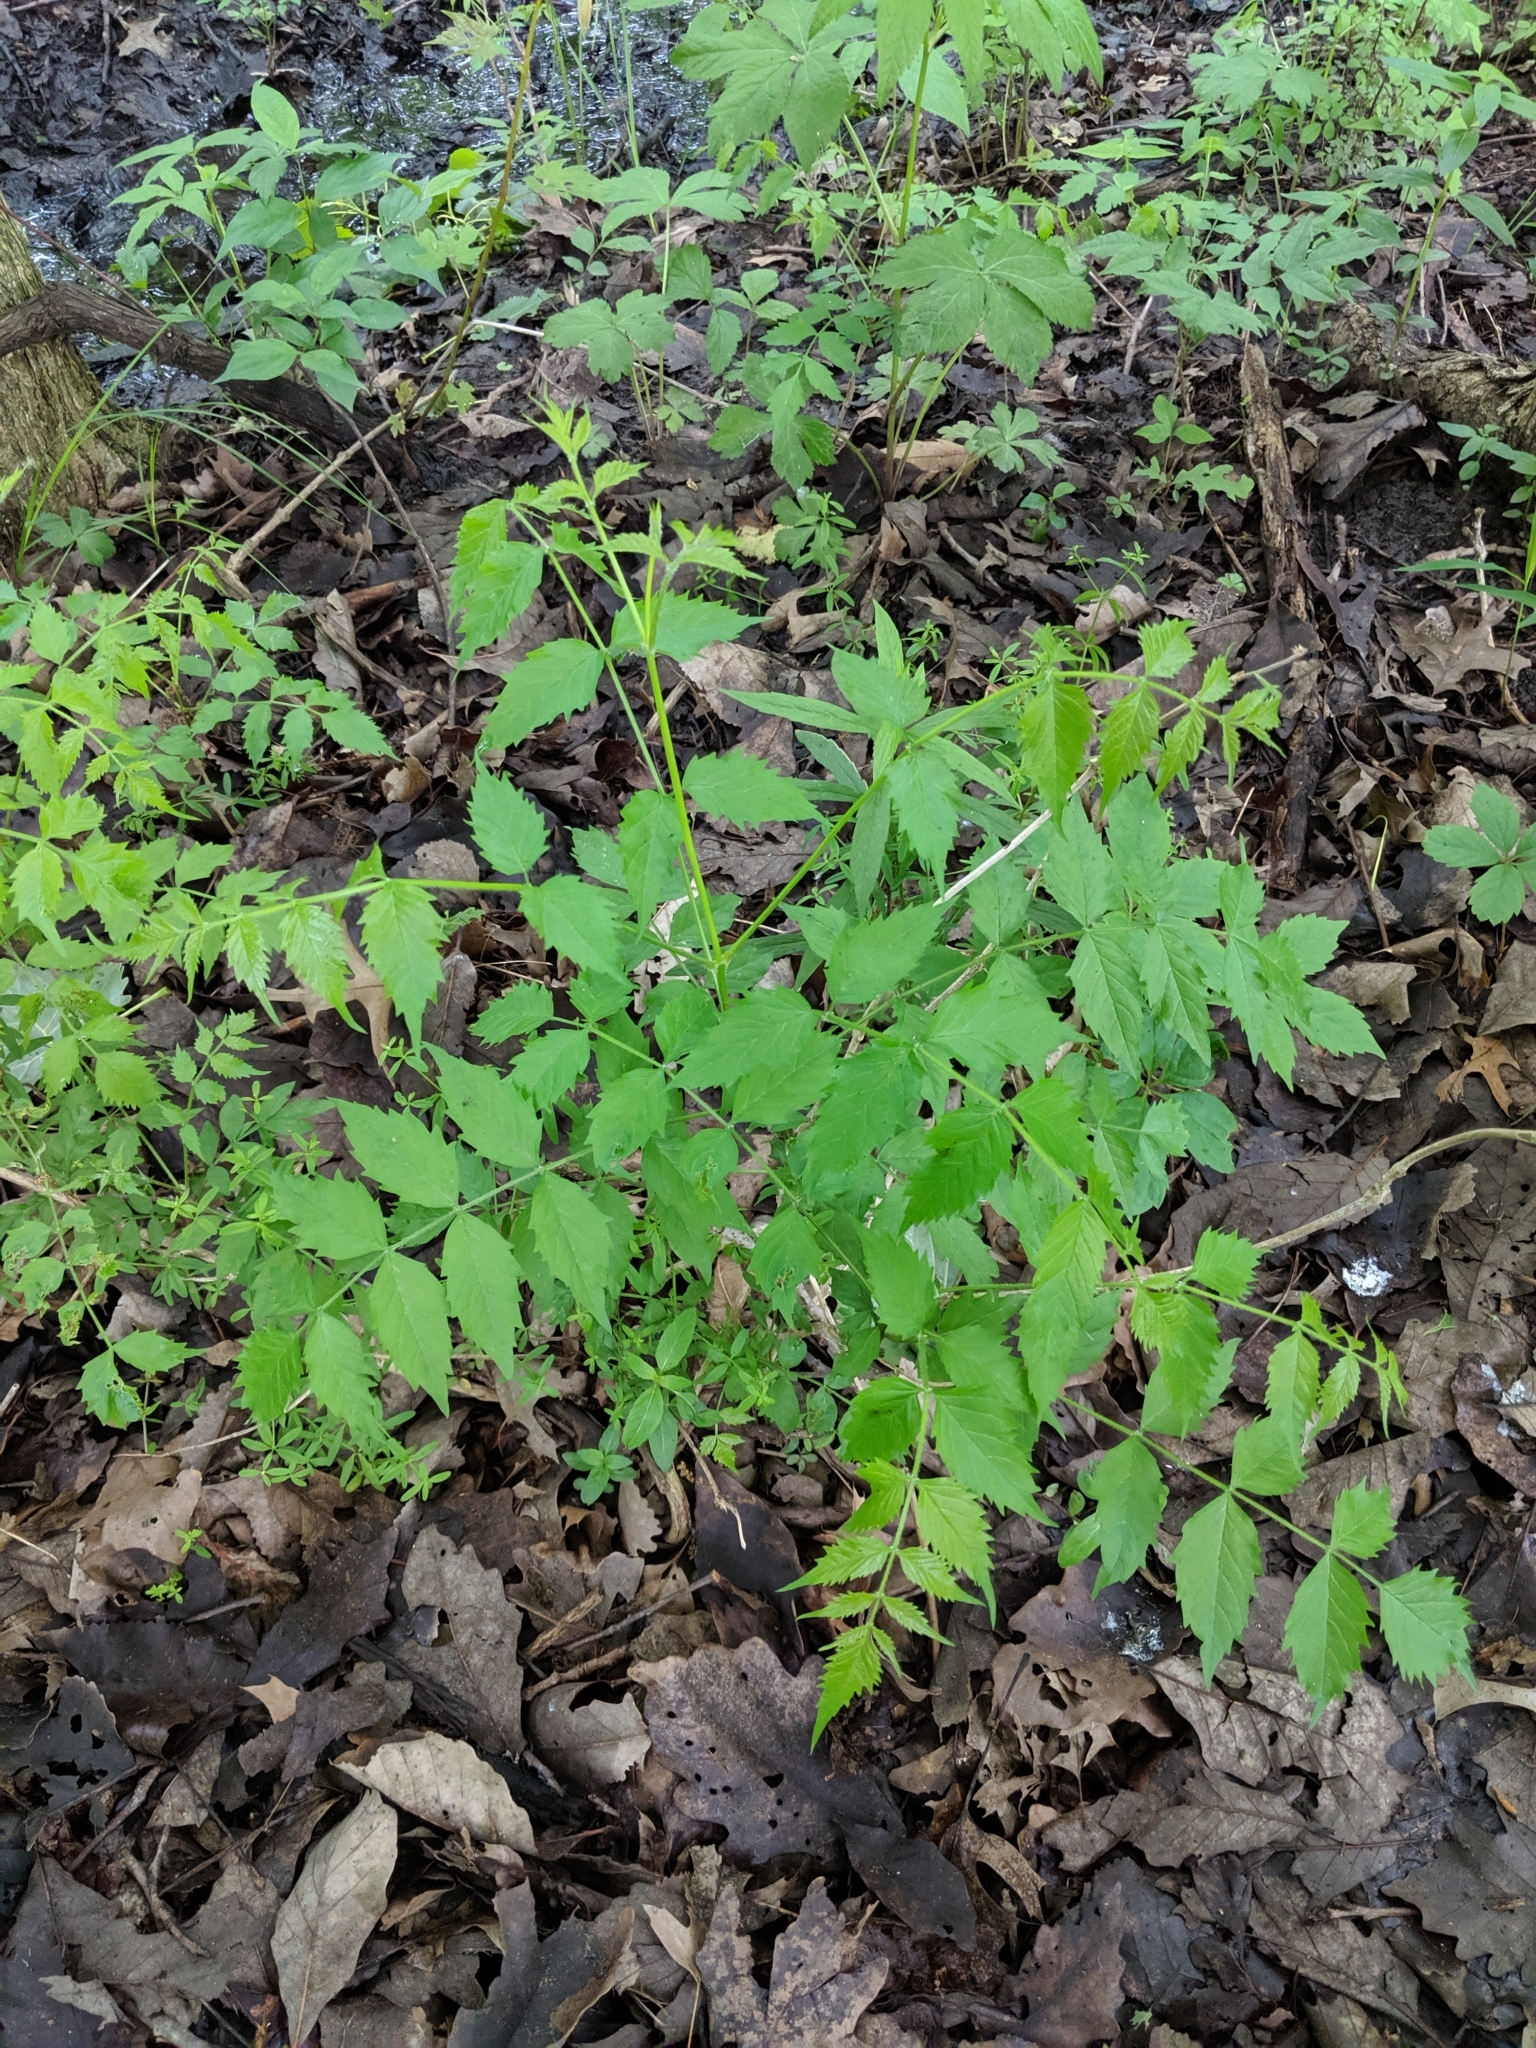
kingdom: Plantae
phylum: Tracheophyta
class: Magnoliopsida
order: Lamiales
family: Bignoniaceae
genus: Campsis
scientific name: Campsis radicans
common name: Trumpet-creeper
